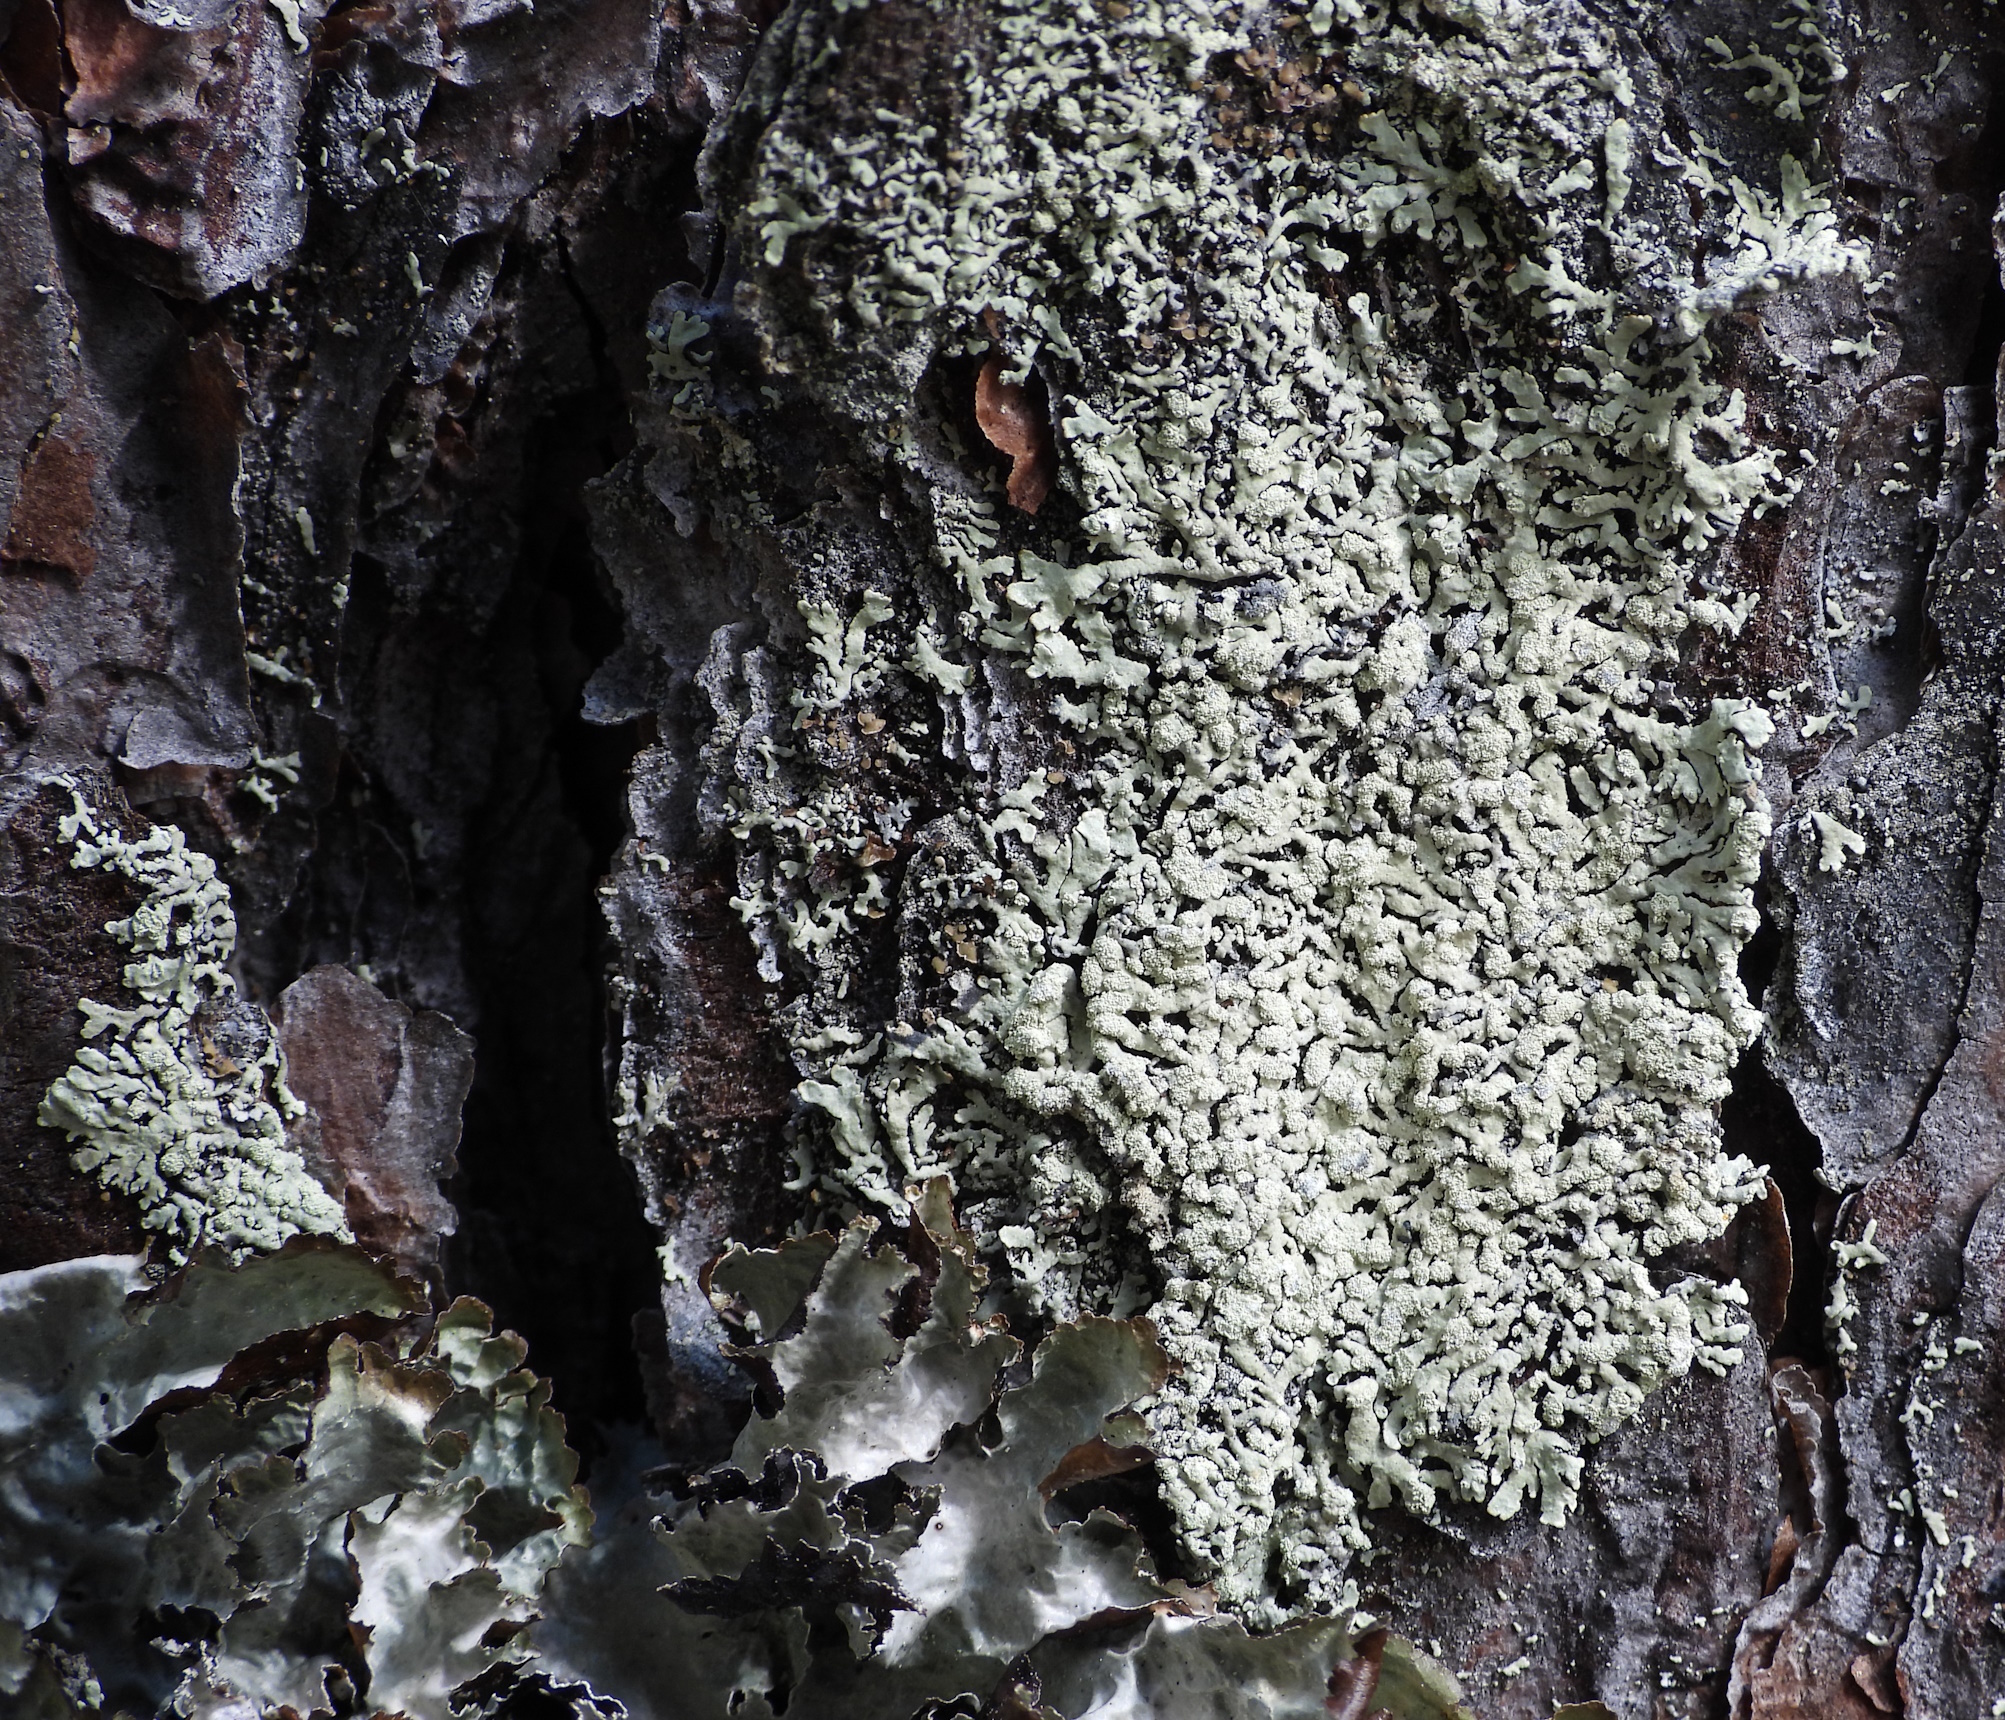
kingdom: Fungi
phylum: Ascomycota
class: Lecanoromycetes
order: Lecanorales
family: Parmeliaceae
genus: Parmeliopsis
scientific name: Parmeliopsis ambigua
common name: Green starburst lichen
